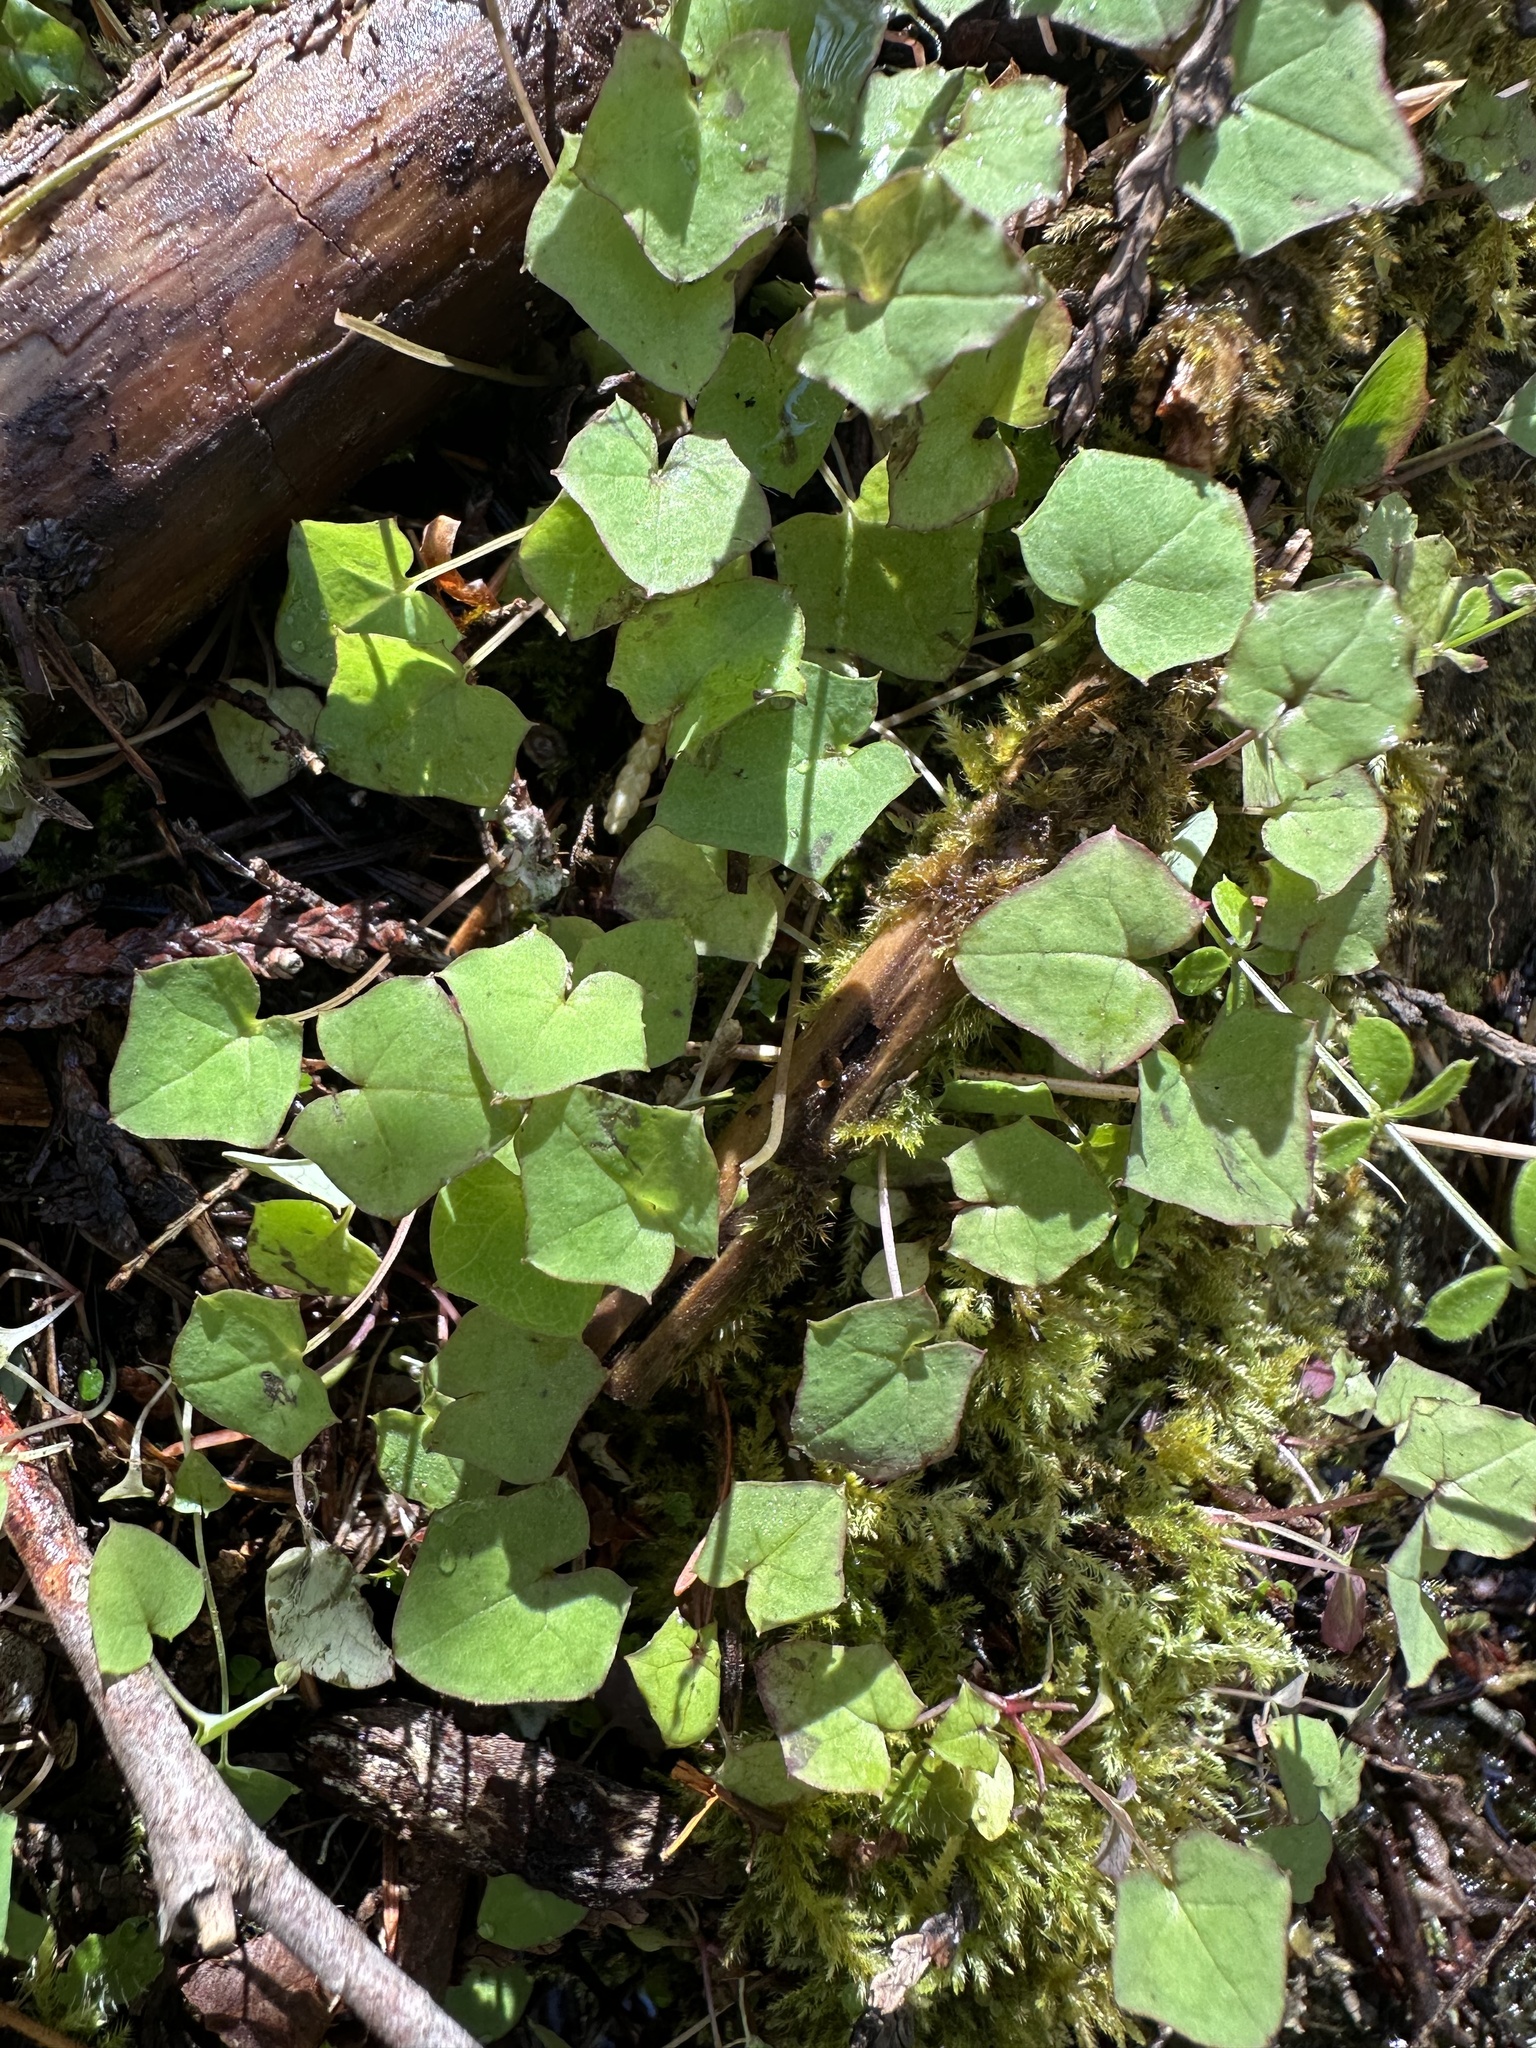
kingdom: Plantae
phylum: Tracheophyta
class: Magnoliopsida
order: Asterales
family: Asteraceae
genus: Mycelis
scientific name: Mycelis muralis
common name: Wall lettuce
